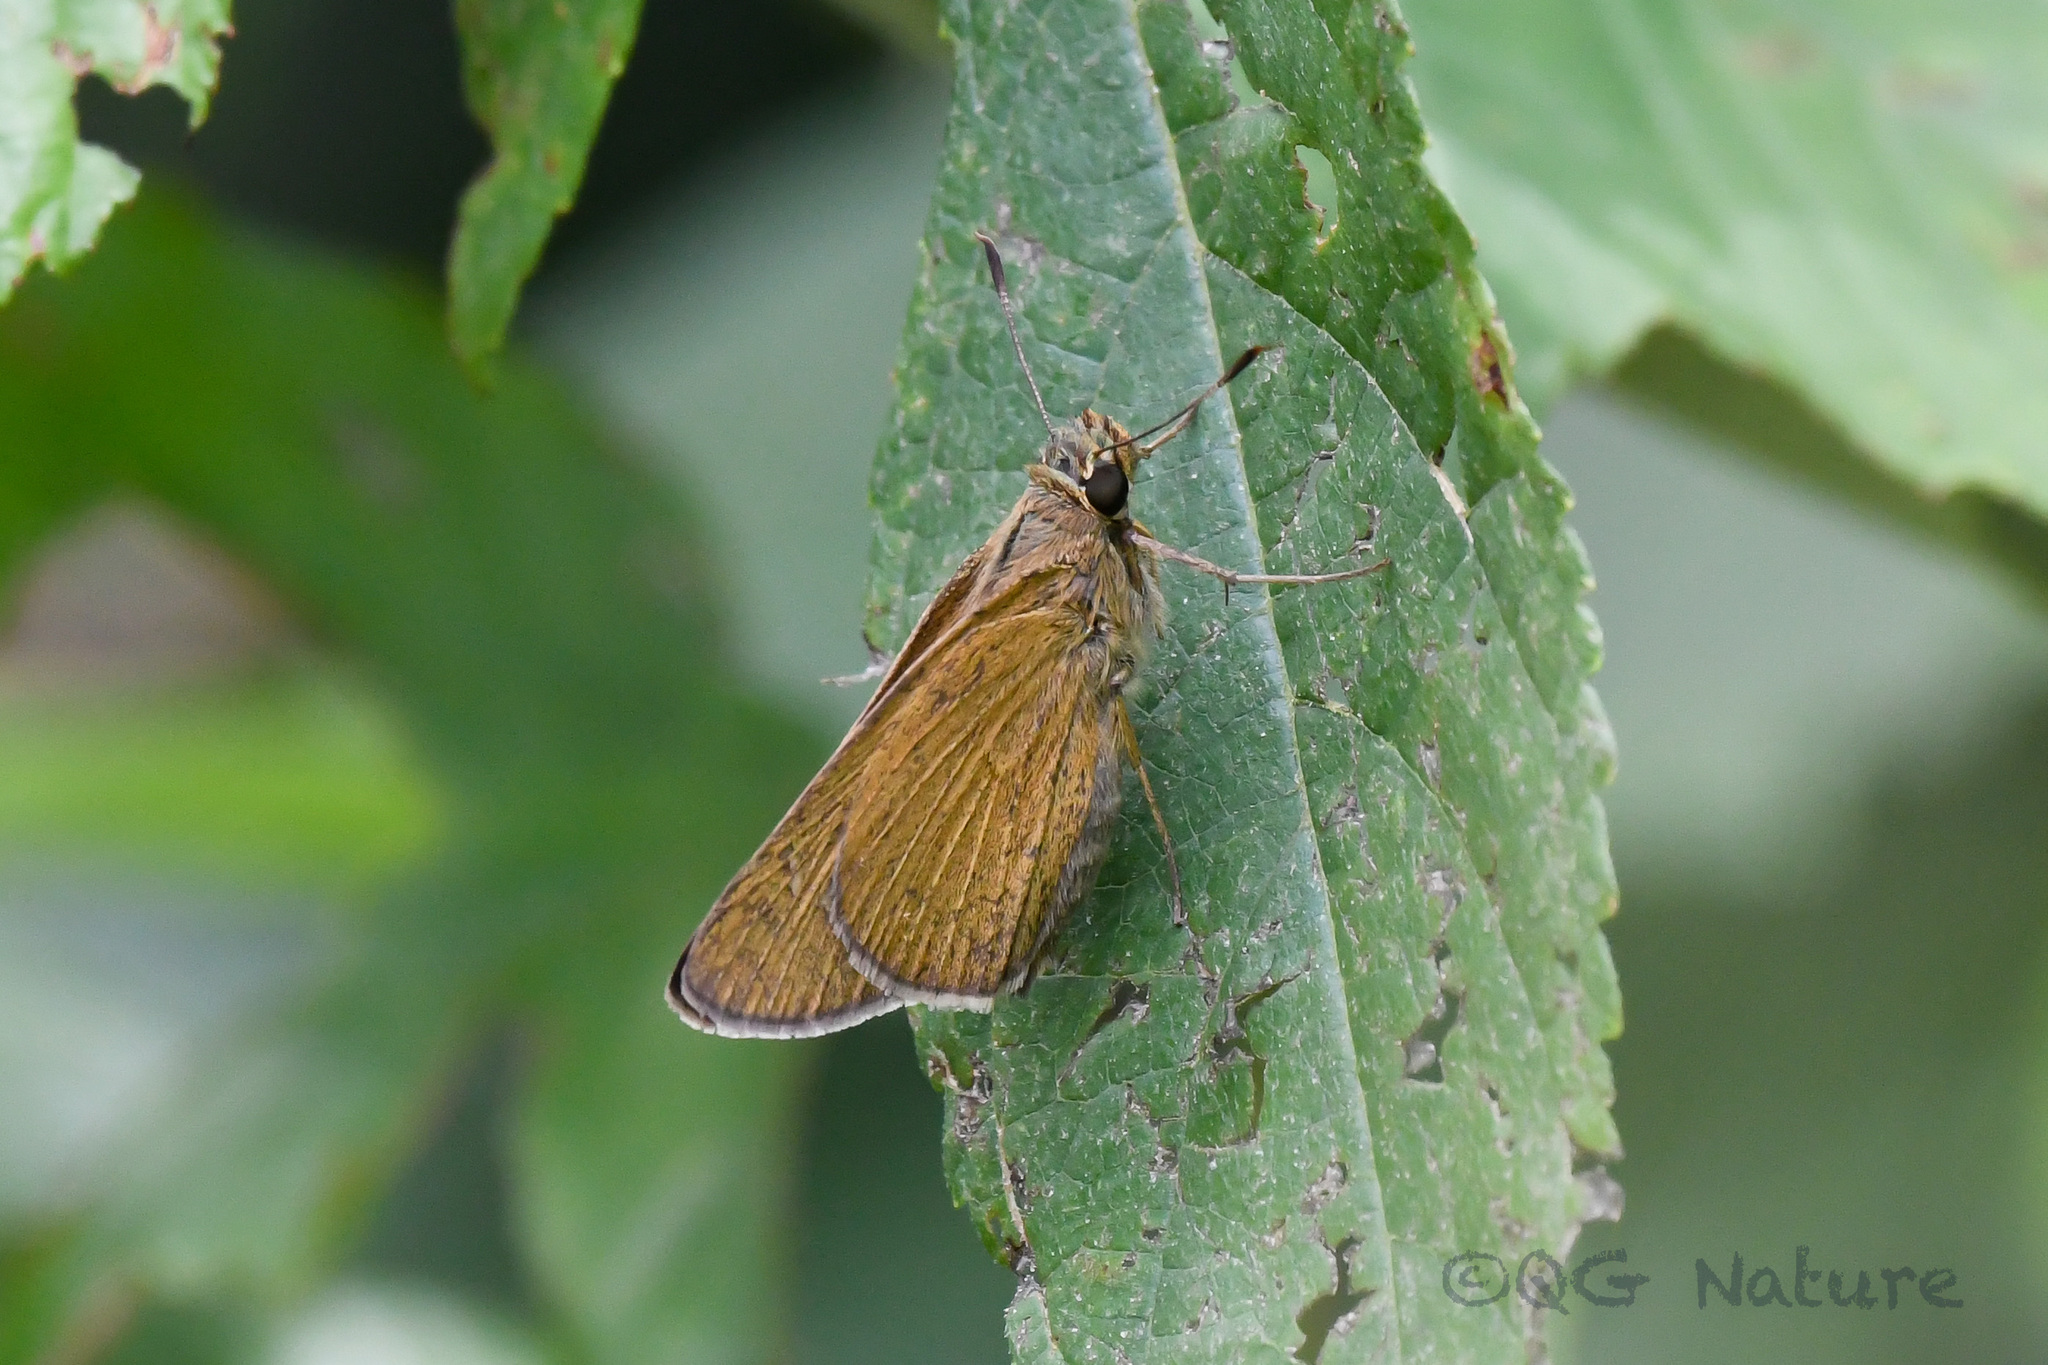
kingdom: Animalia
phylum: Arthropoda
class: Insecta
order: Lepidoptera
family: Hesperiidae
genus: Baoris
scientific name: Baoris leechi
